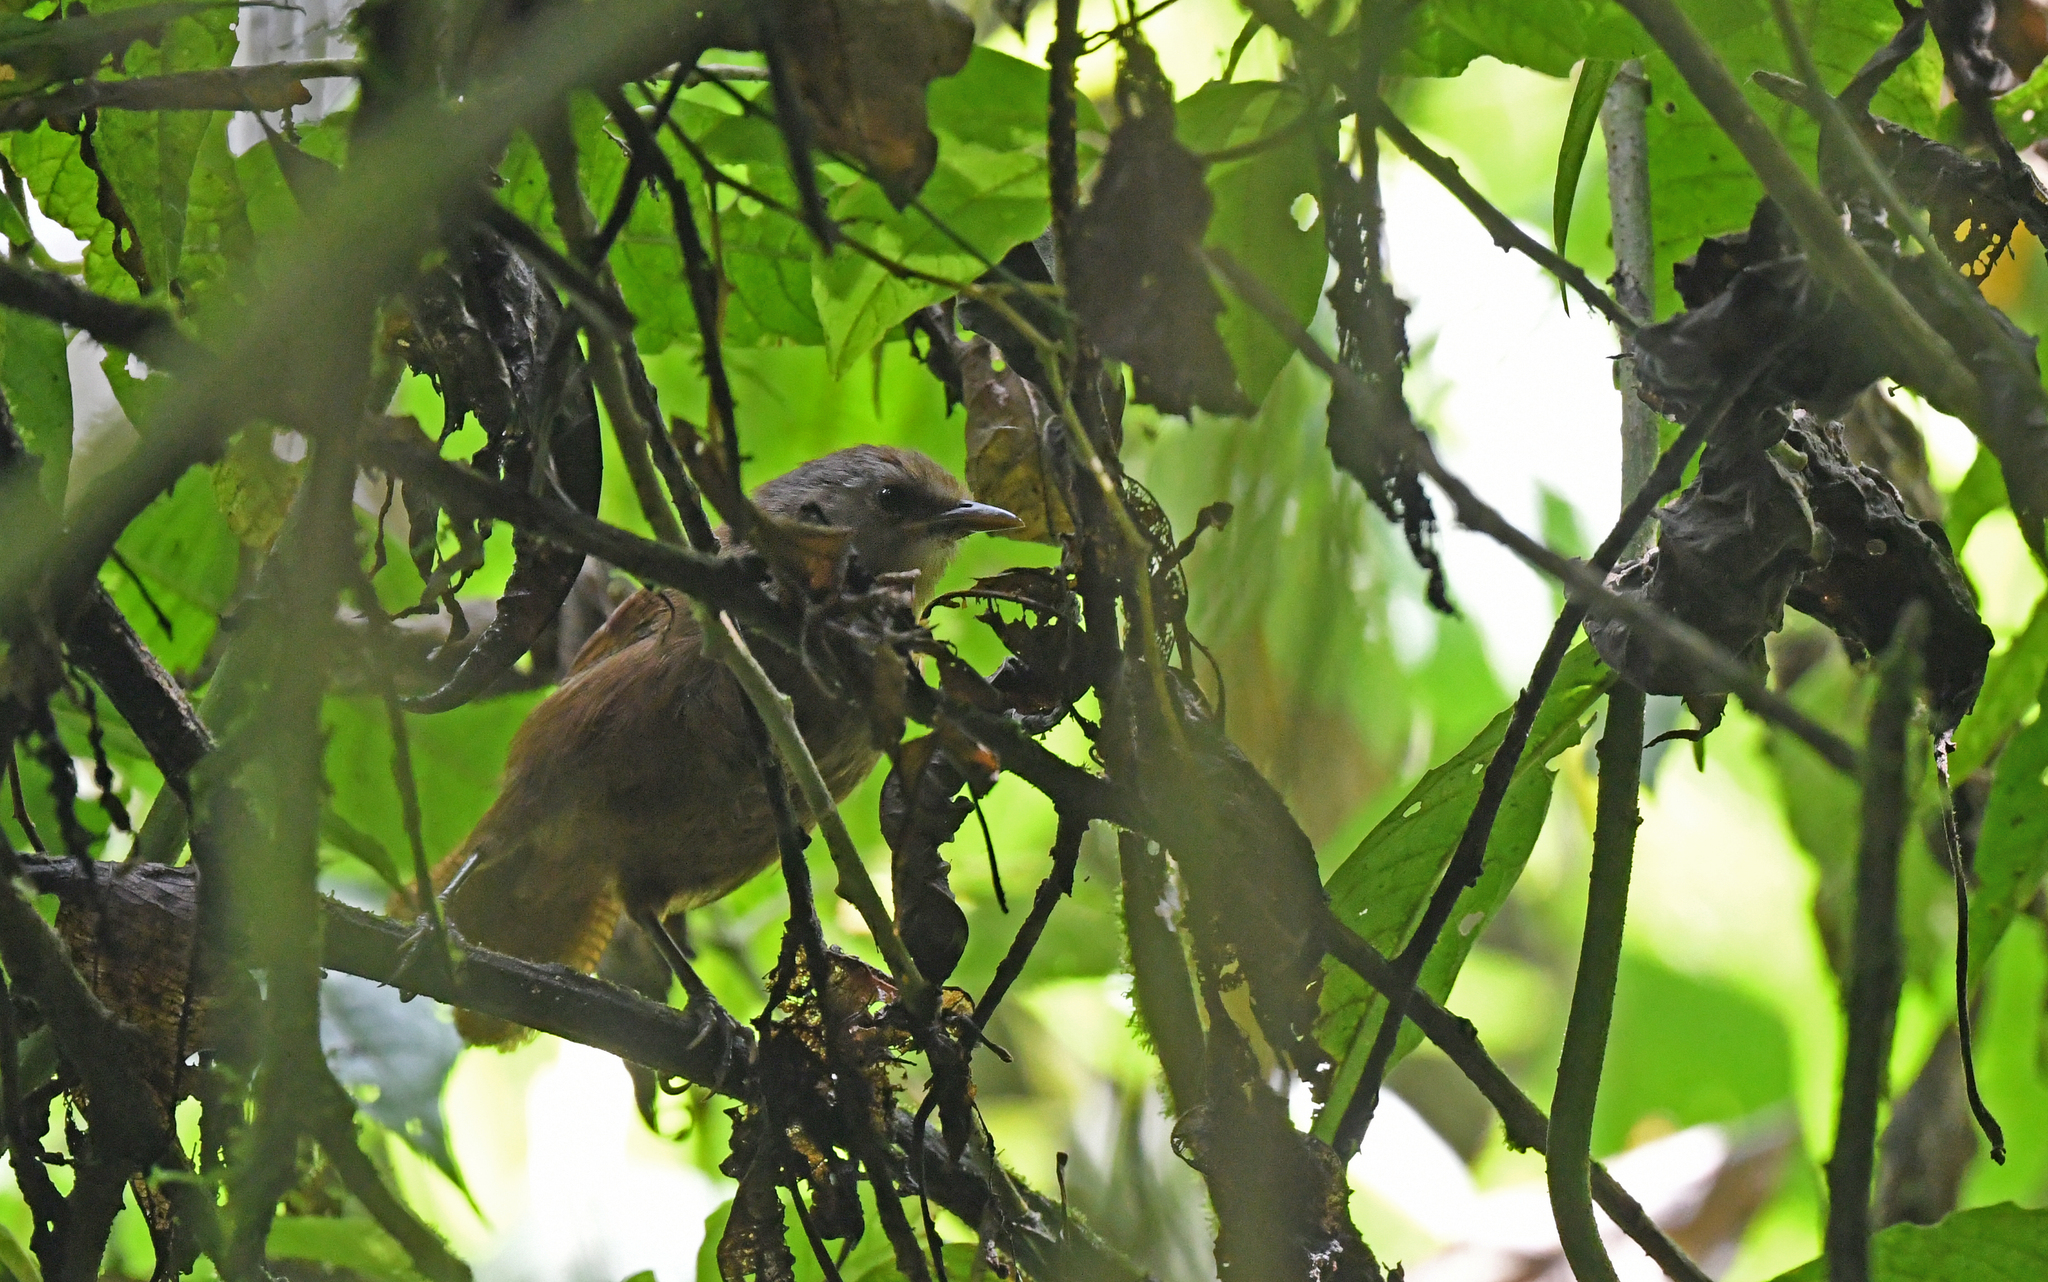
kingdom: Animalia
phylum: Chordata
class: Aves
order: Passeriformes
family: Troglodytidae
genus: Cinnycerthia
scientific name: Cinnycerthia olivascens
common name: Sharpe's wren
